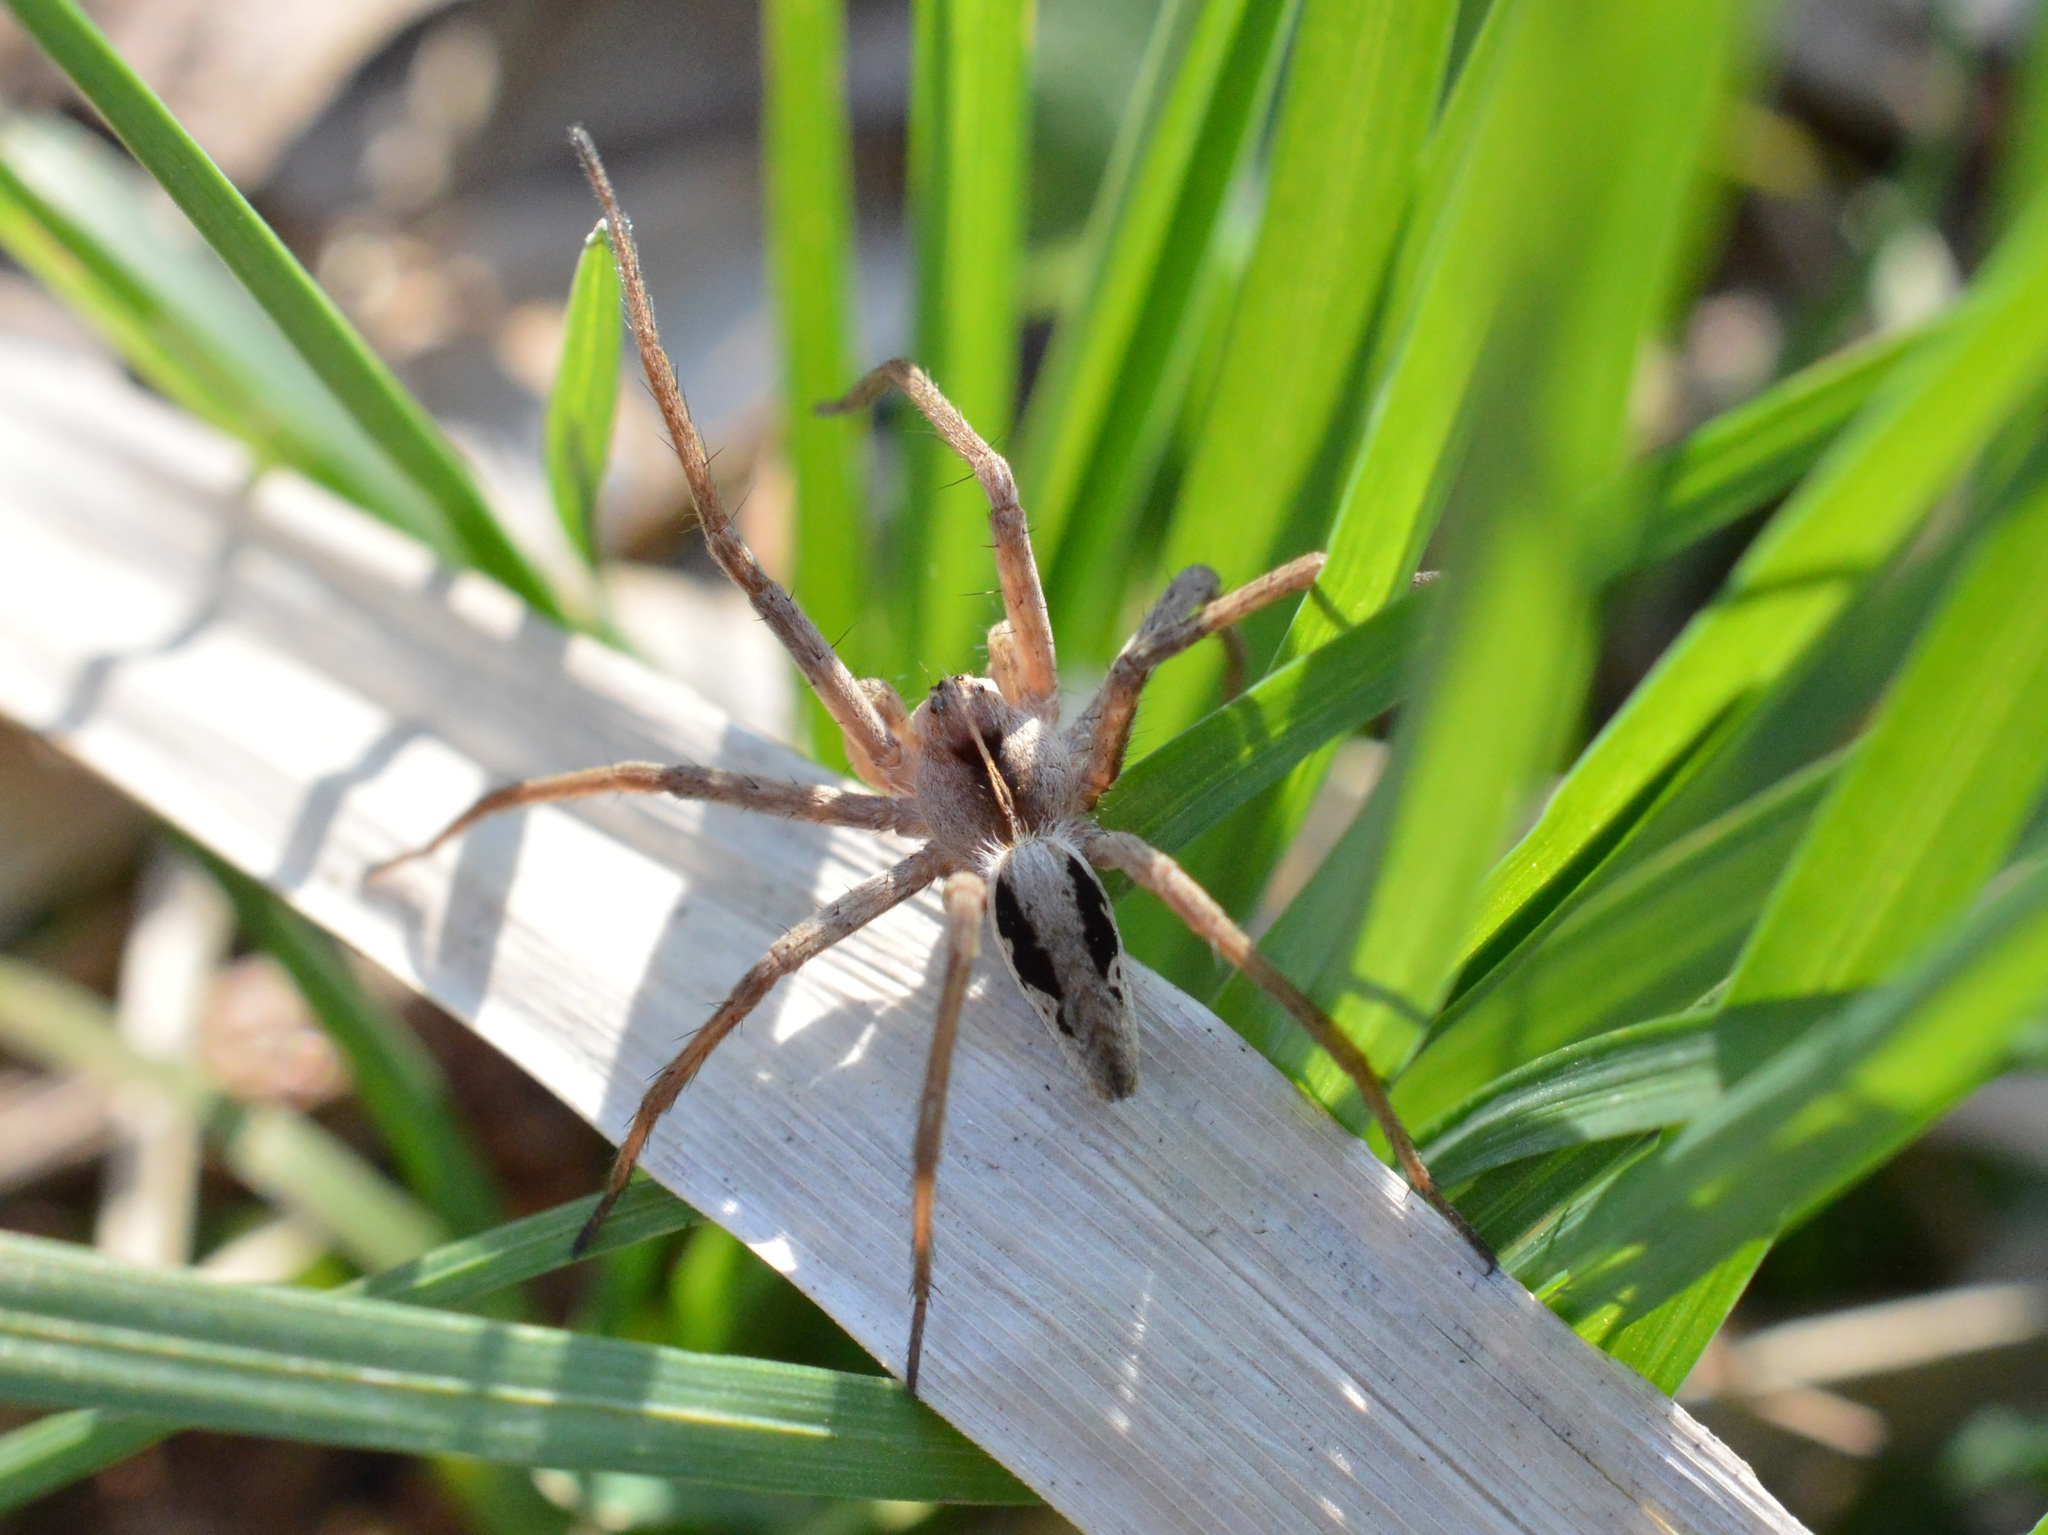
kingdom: Animalia
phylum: Arthropoda
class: Arachnida
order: Araneae
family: Pisauridae
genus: Pisaura
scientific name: Pisaura
